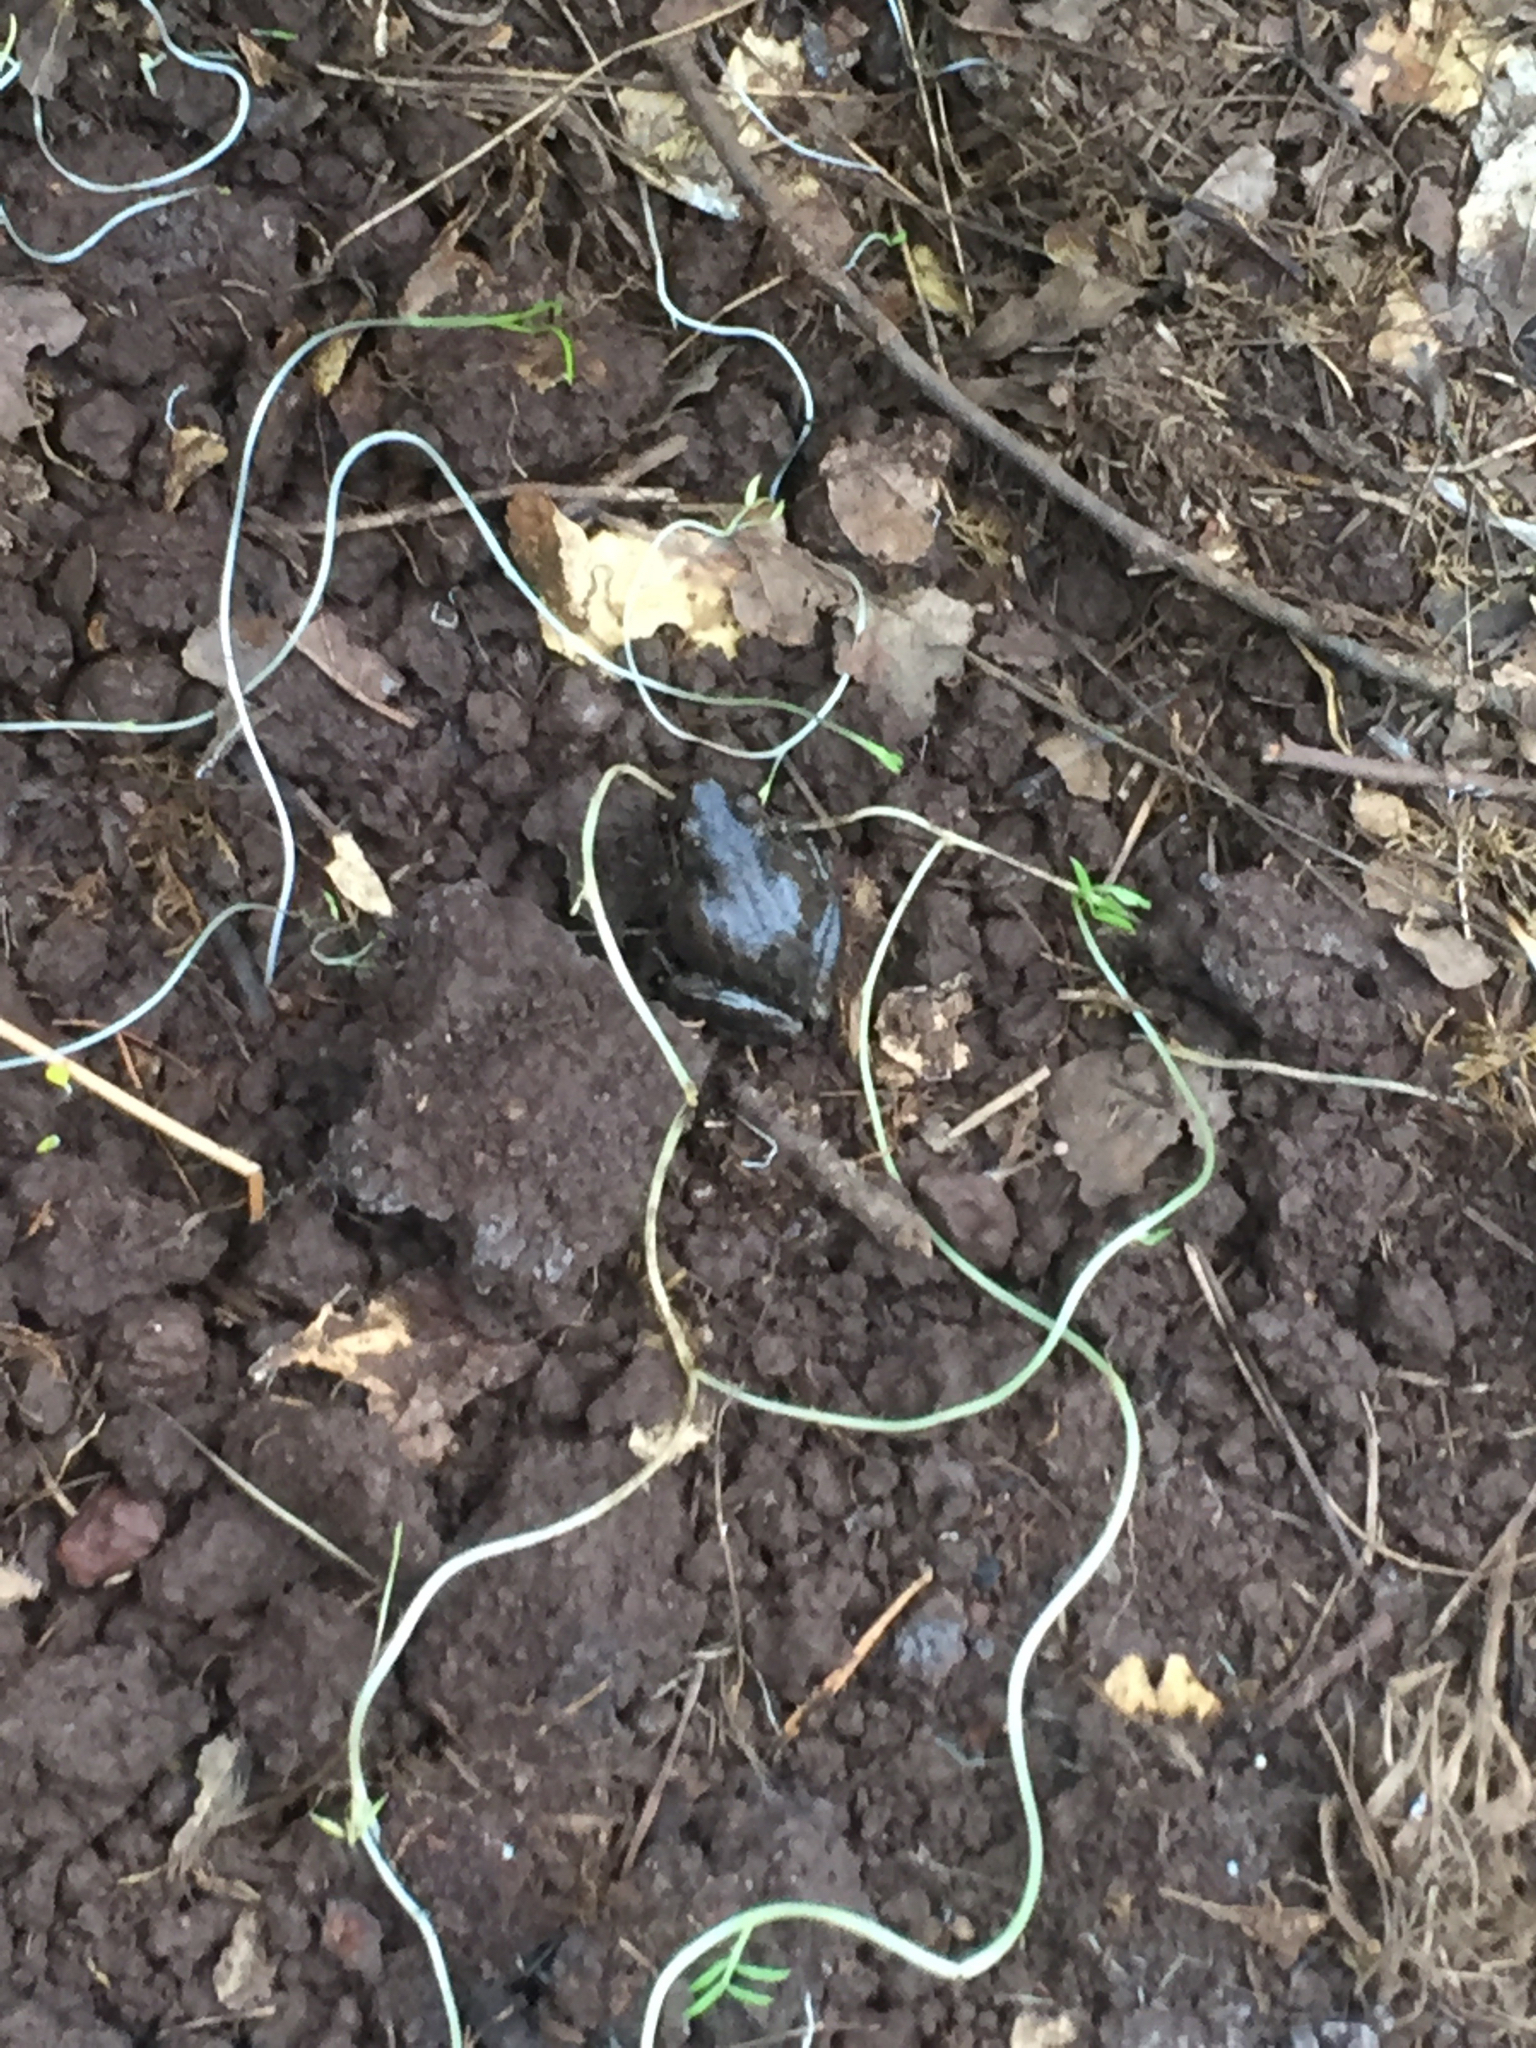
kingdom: Animalia
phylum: Chordata
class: Amphibia
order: Anura
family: Hylidae
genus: Pseudacris
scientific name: Pseudacris regilla
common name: Pacific chorus frog
